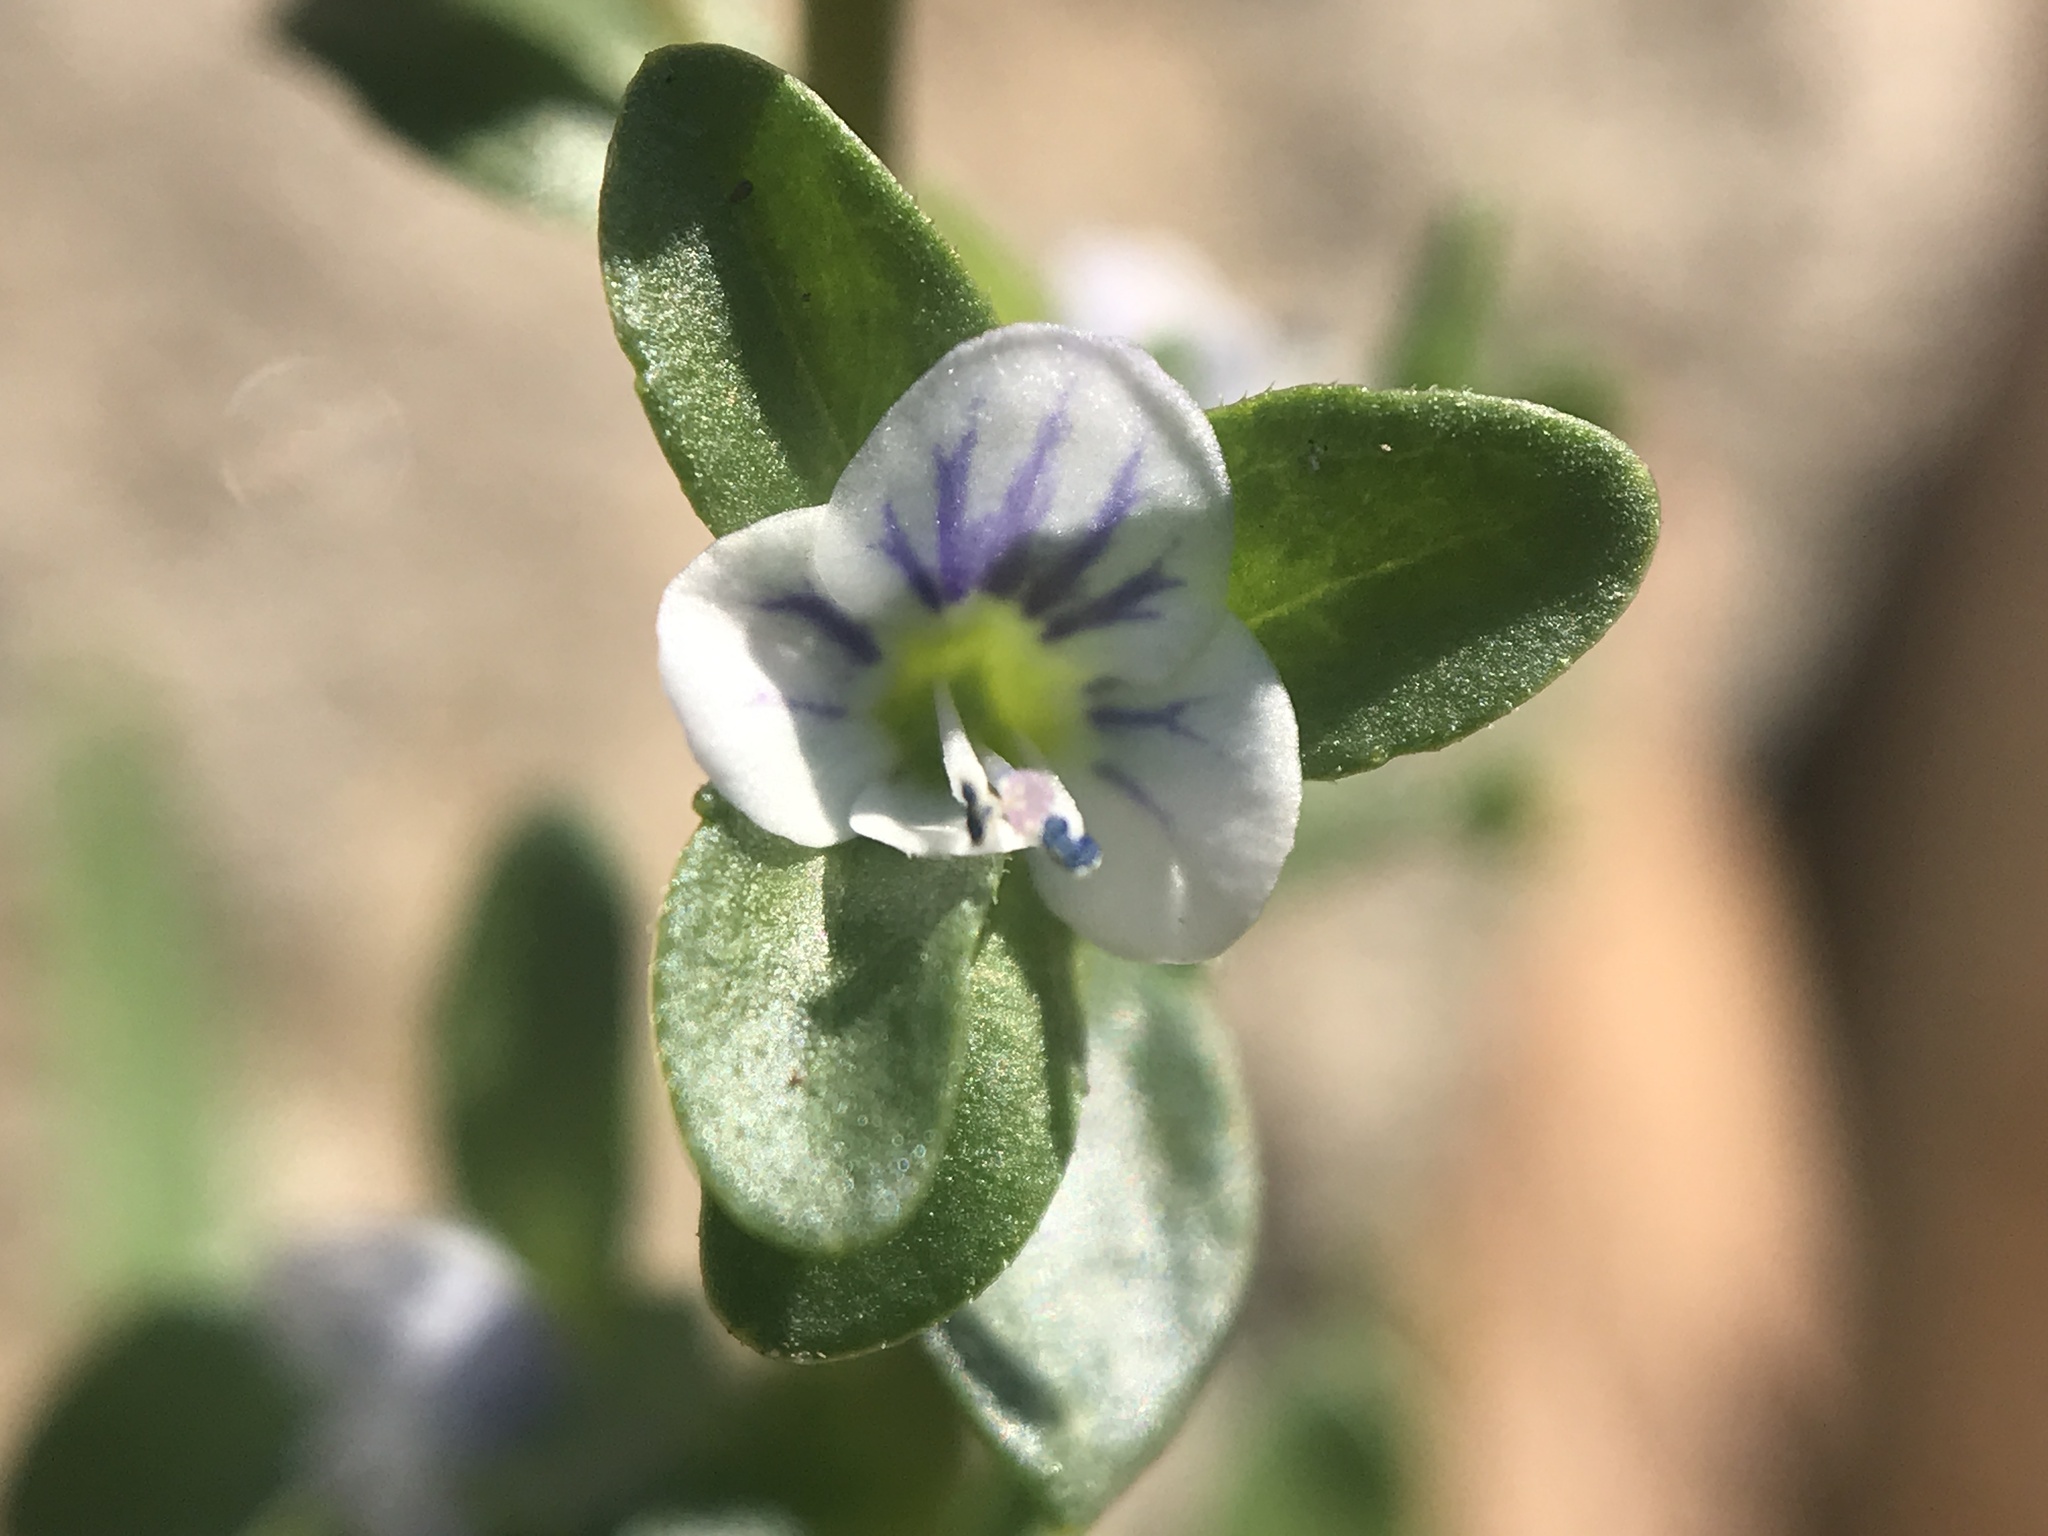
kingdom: Plantae
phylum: Tracheophyta
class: Magnoliopsida
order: Lamiales
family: Plantaginaceae
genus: Veronica
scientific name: Veronica serpyllifolia
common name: Thyme-leaved speedwell
